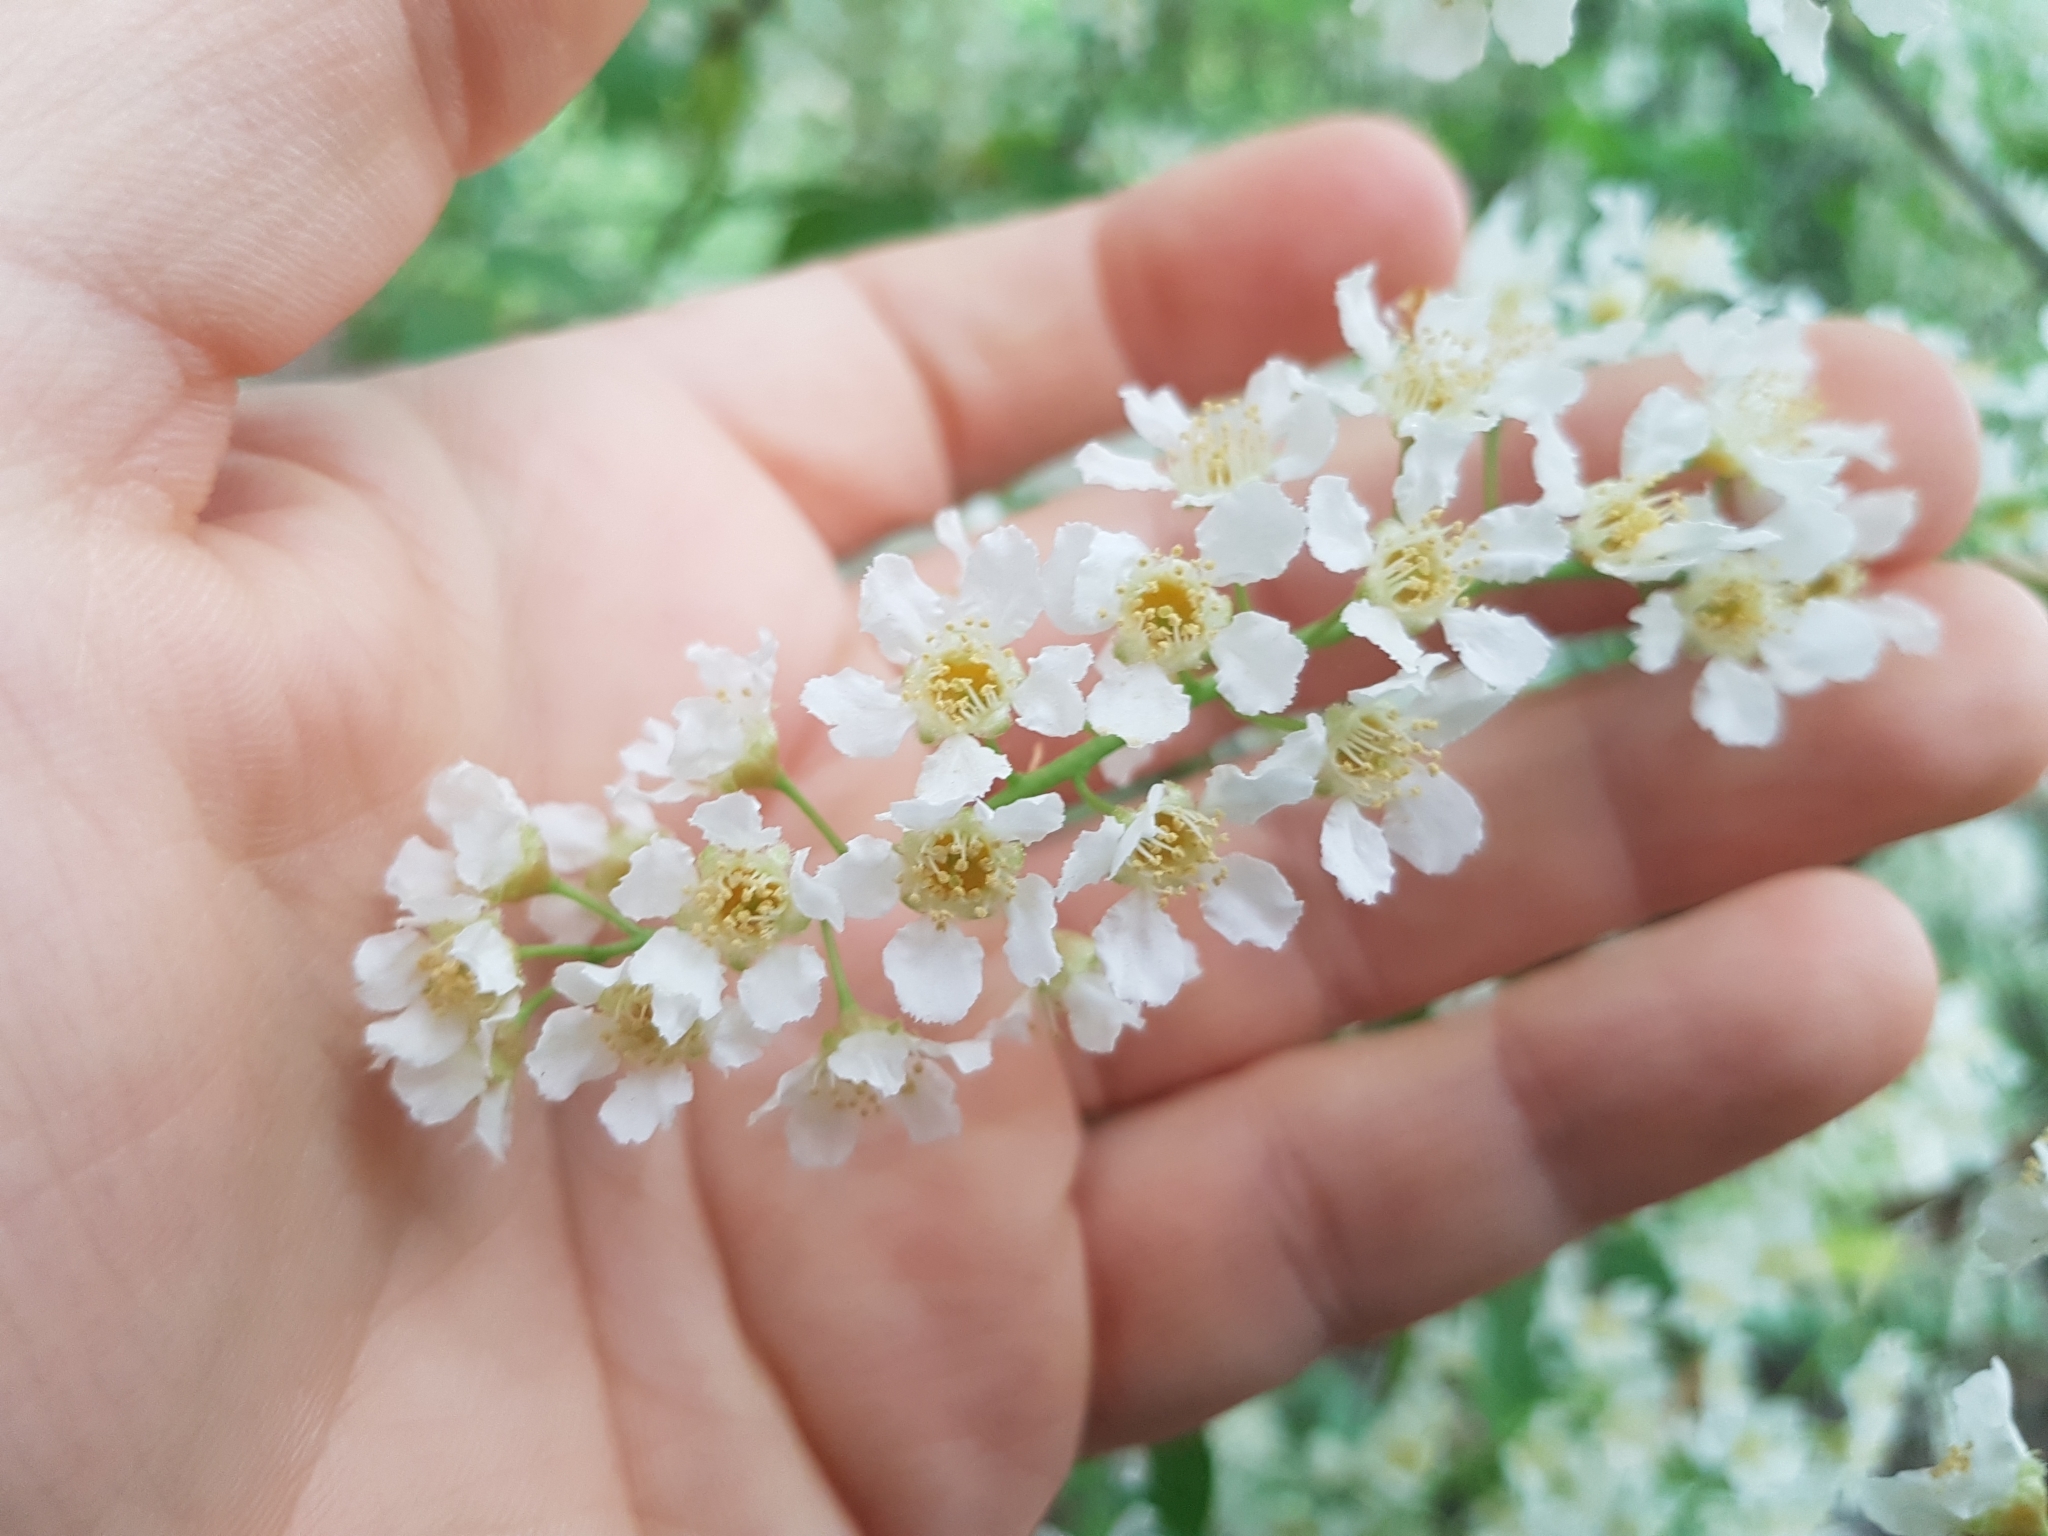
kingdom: Plantae
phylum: Tracheophyta
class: Magnoliopsida
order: Rosales
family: Rosaceae
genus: Prunus
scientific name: Prunus padus
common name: Bird cherry
